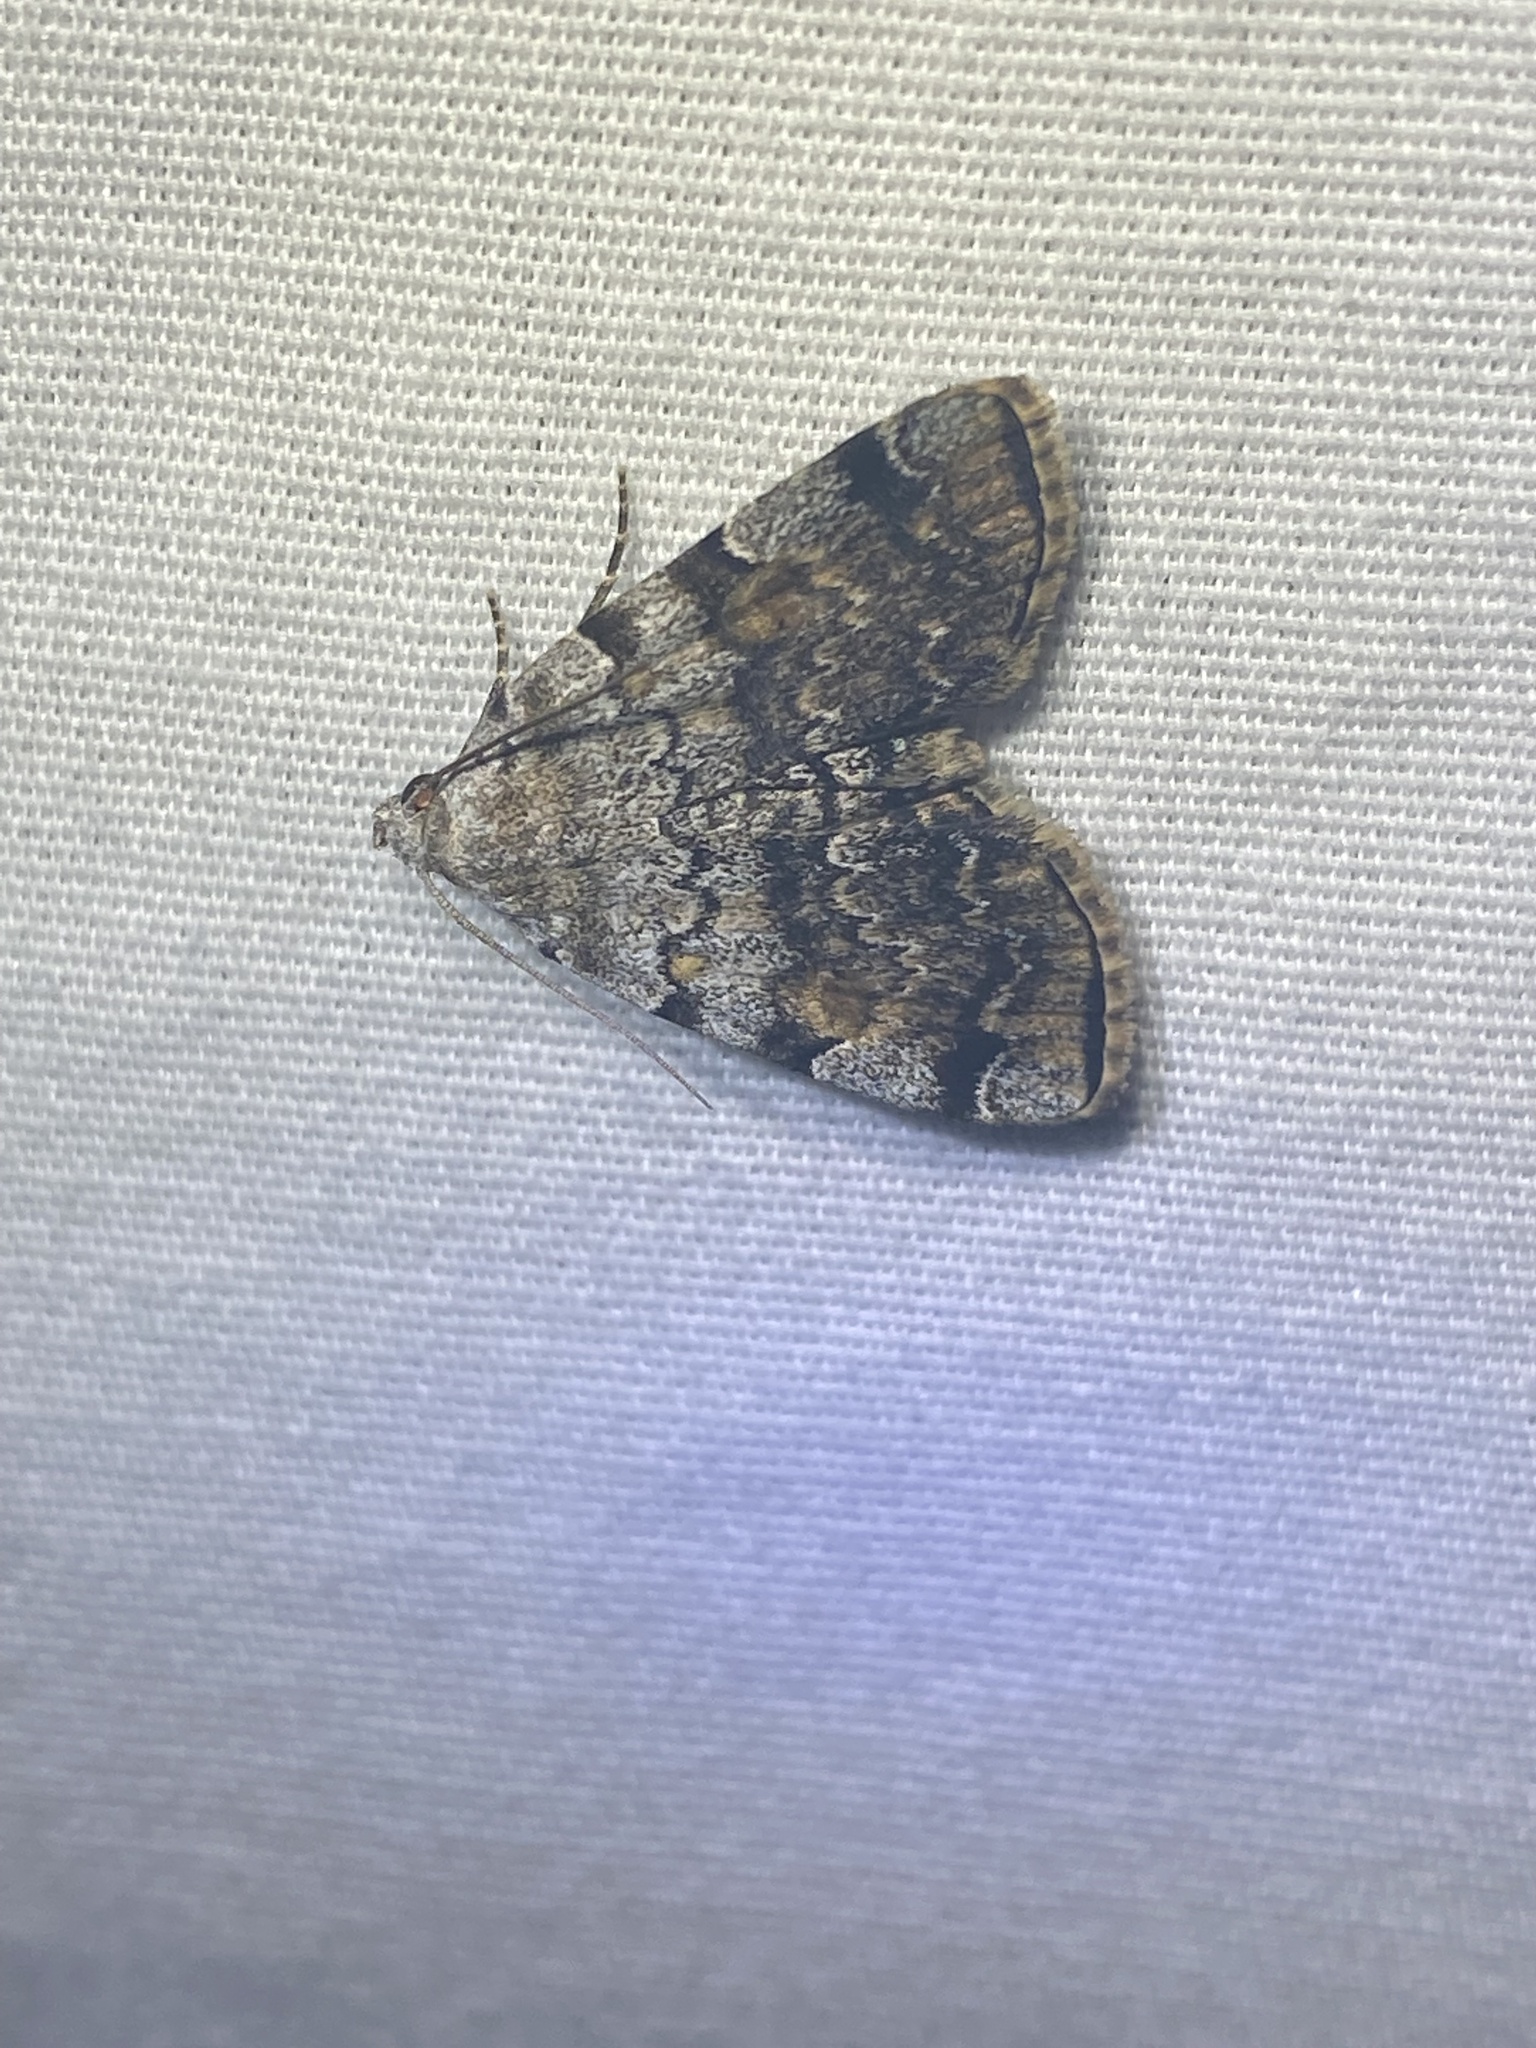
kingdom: Animalia
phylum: Arthropoda
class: Insecta
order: Lepidoptera
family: Erebidae
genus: Idia
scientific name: Idia americalis
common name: American idia moth
